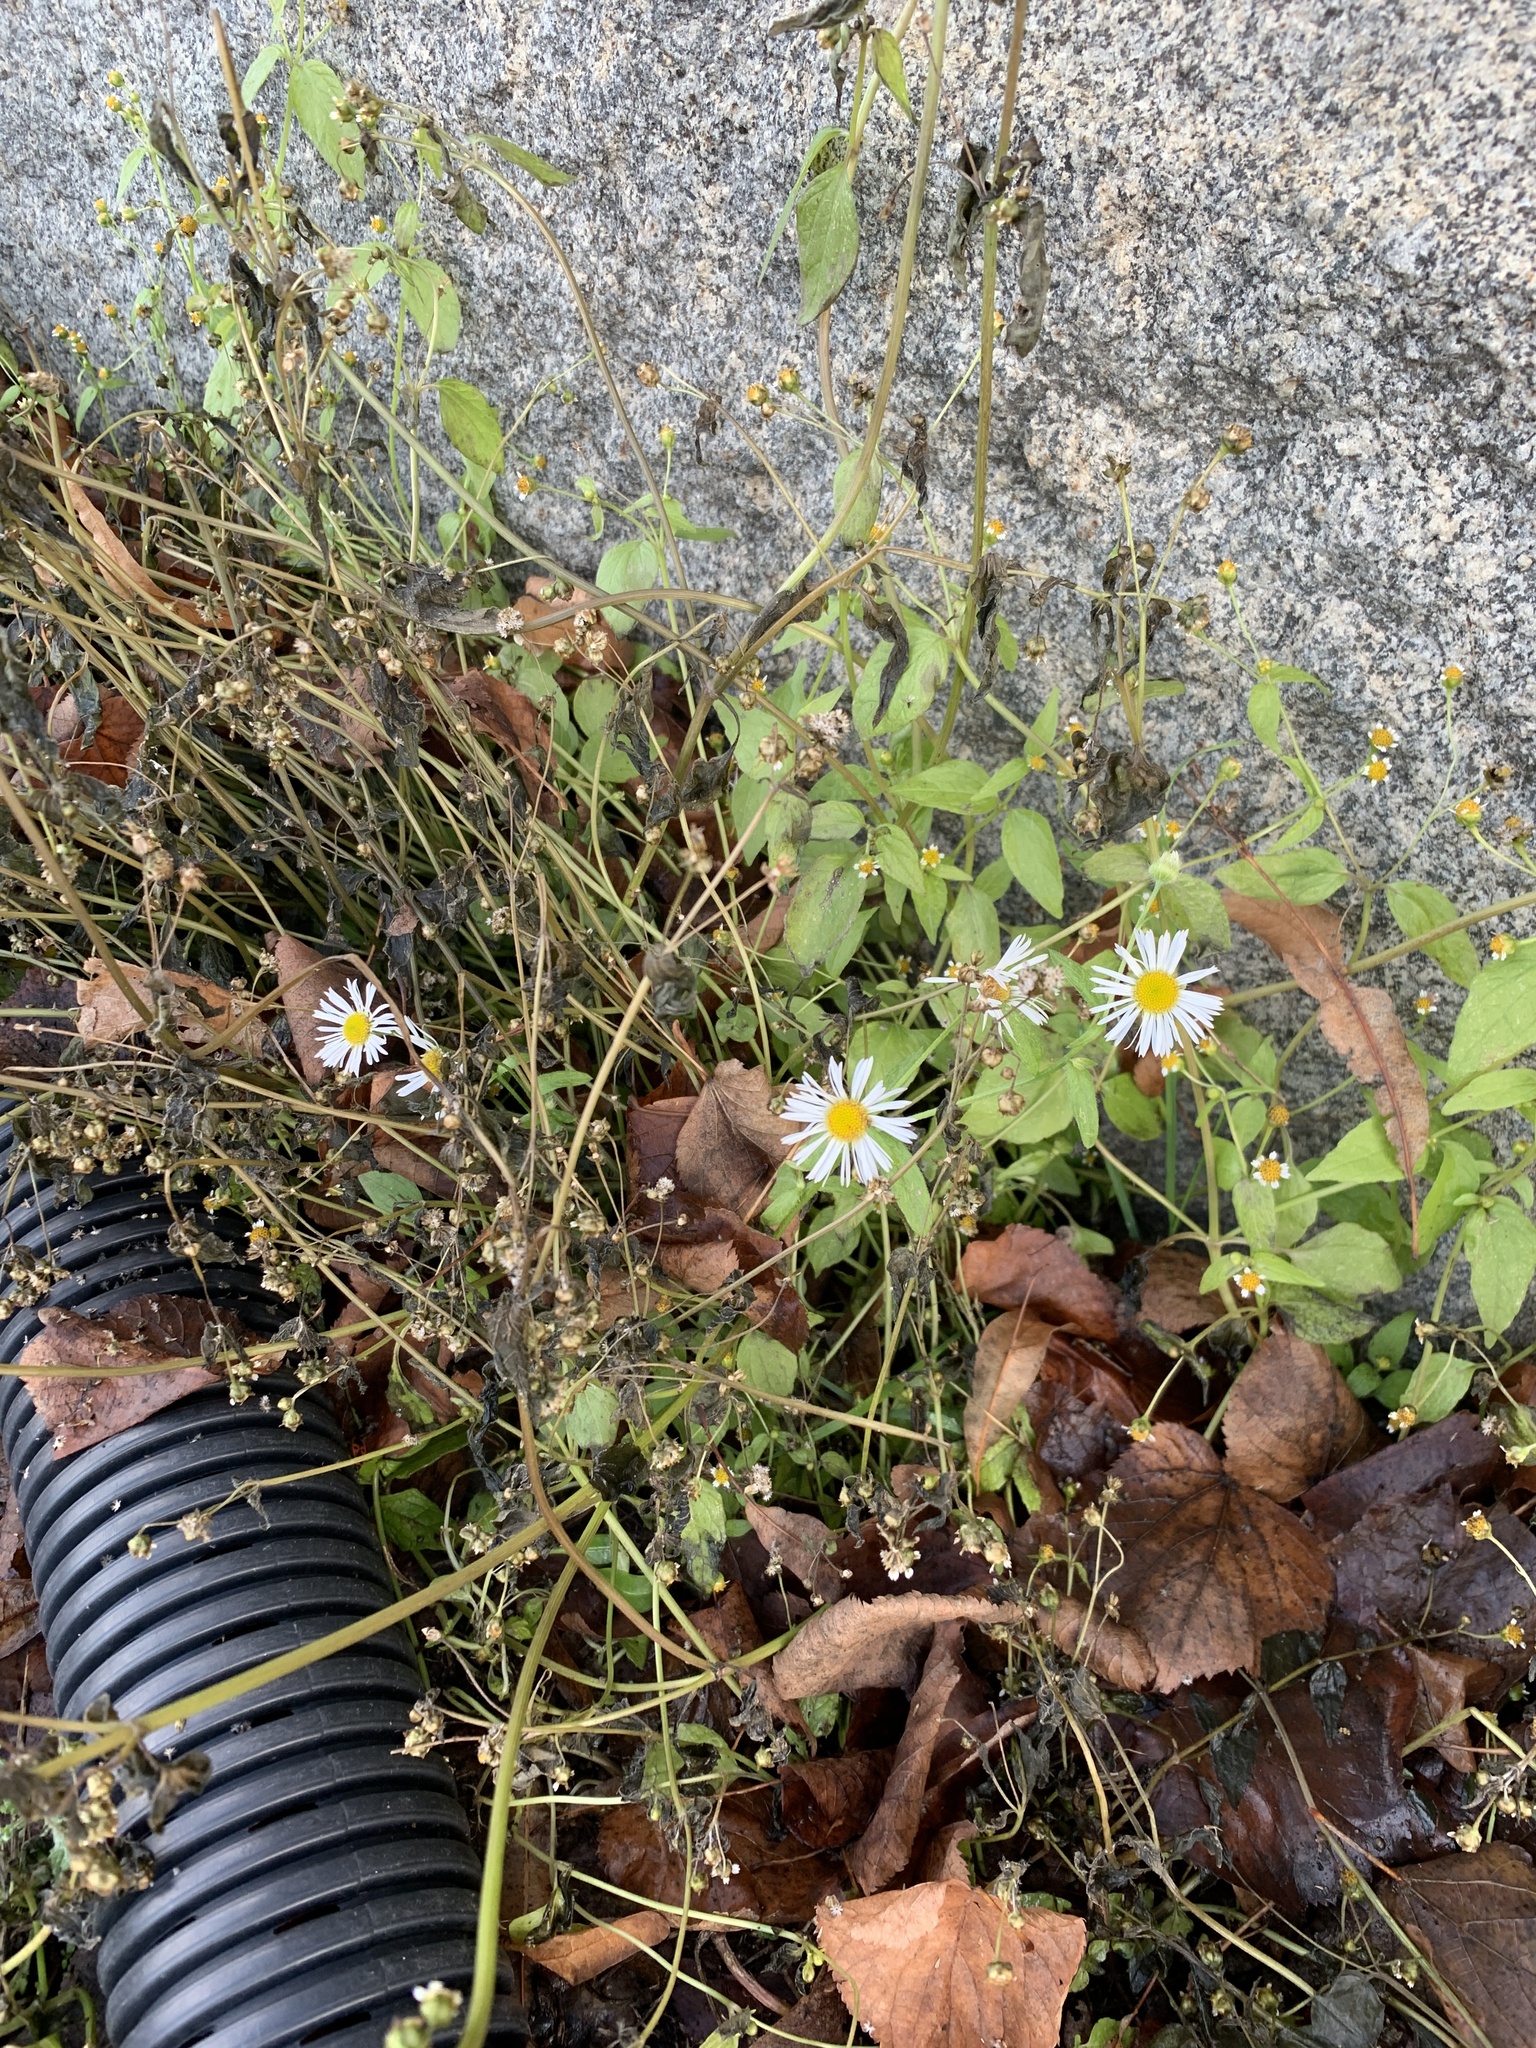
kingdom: Plantae
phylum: Tracheophyta
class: Magnoliopsida
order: Asterales
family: Asteraceae
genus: Erigeron
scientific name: Erigeron annuus
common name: Tall fleabane
